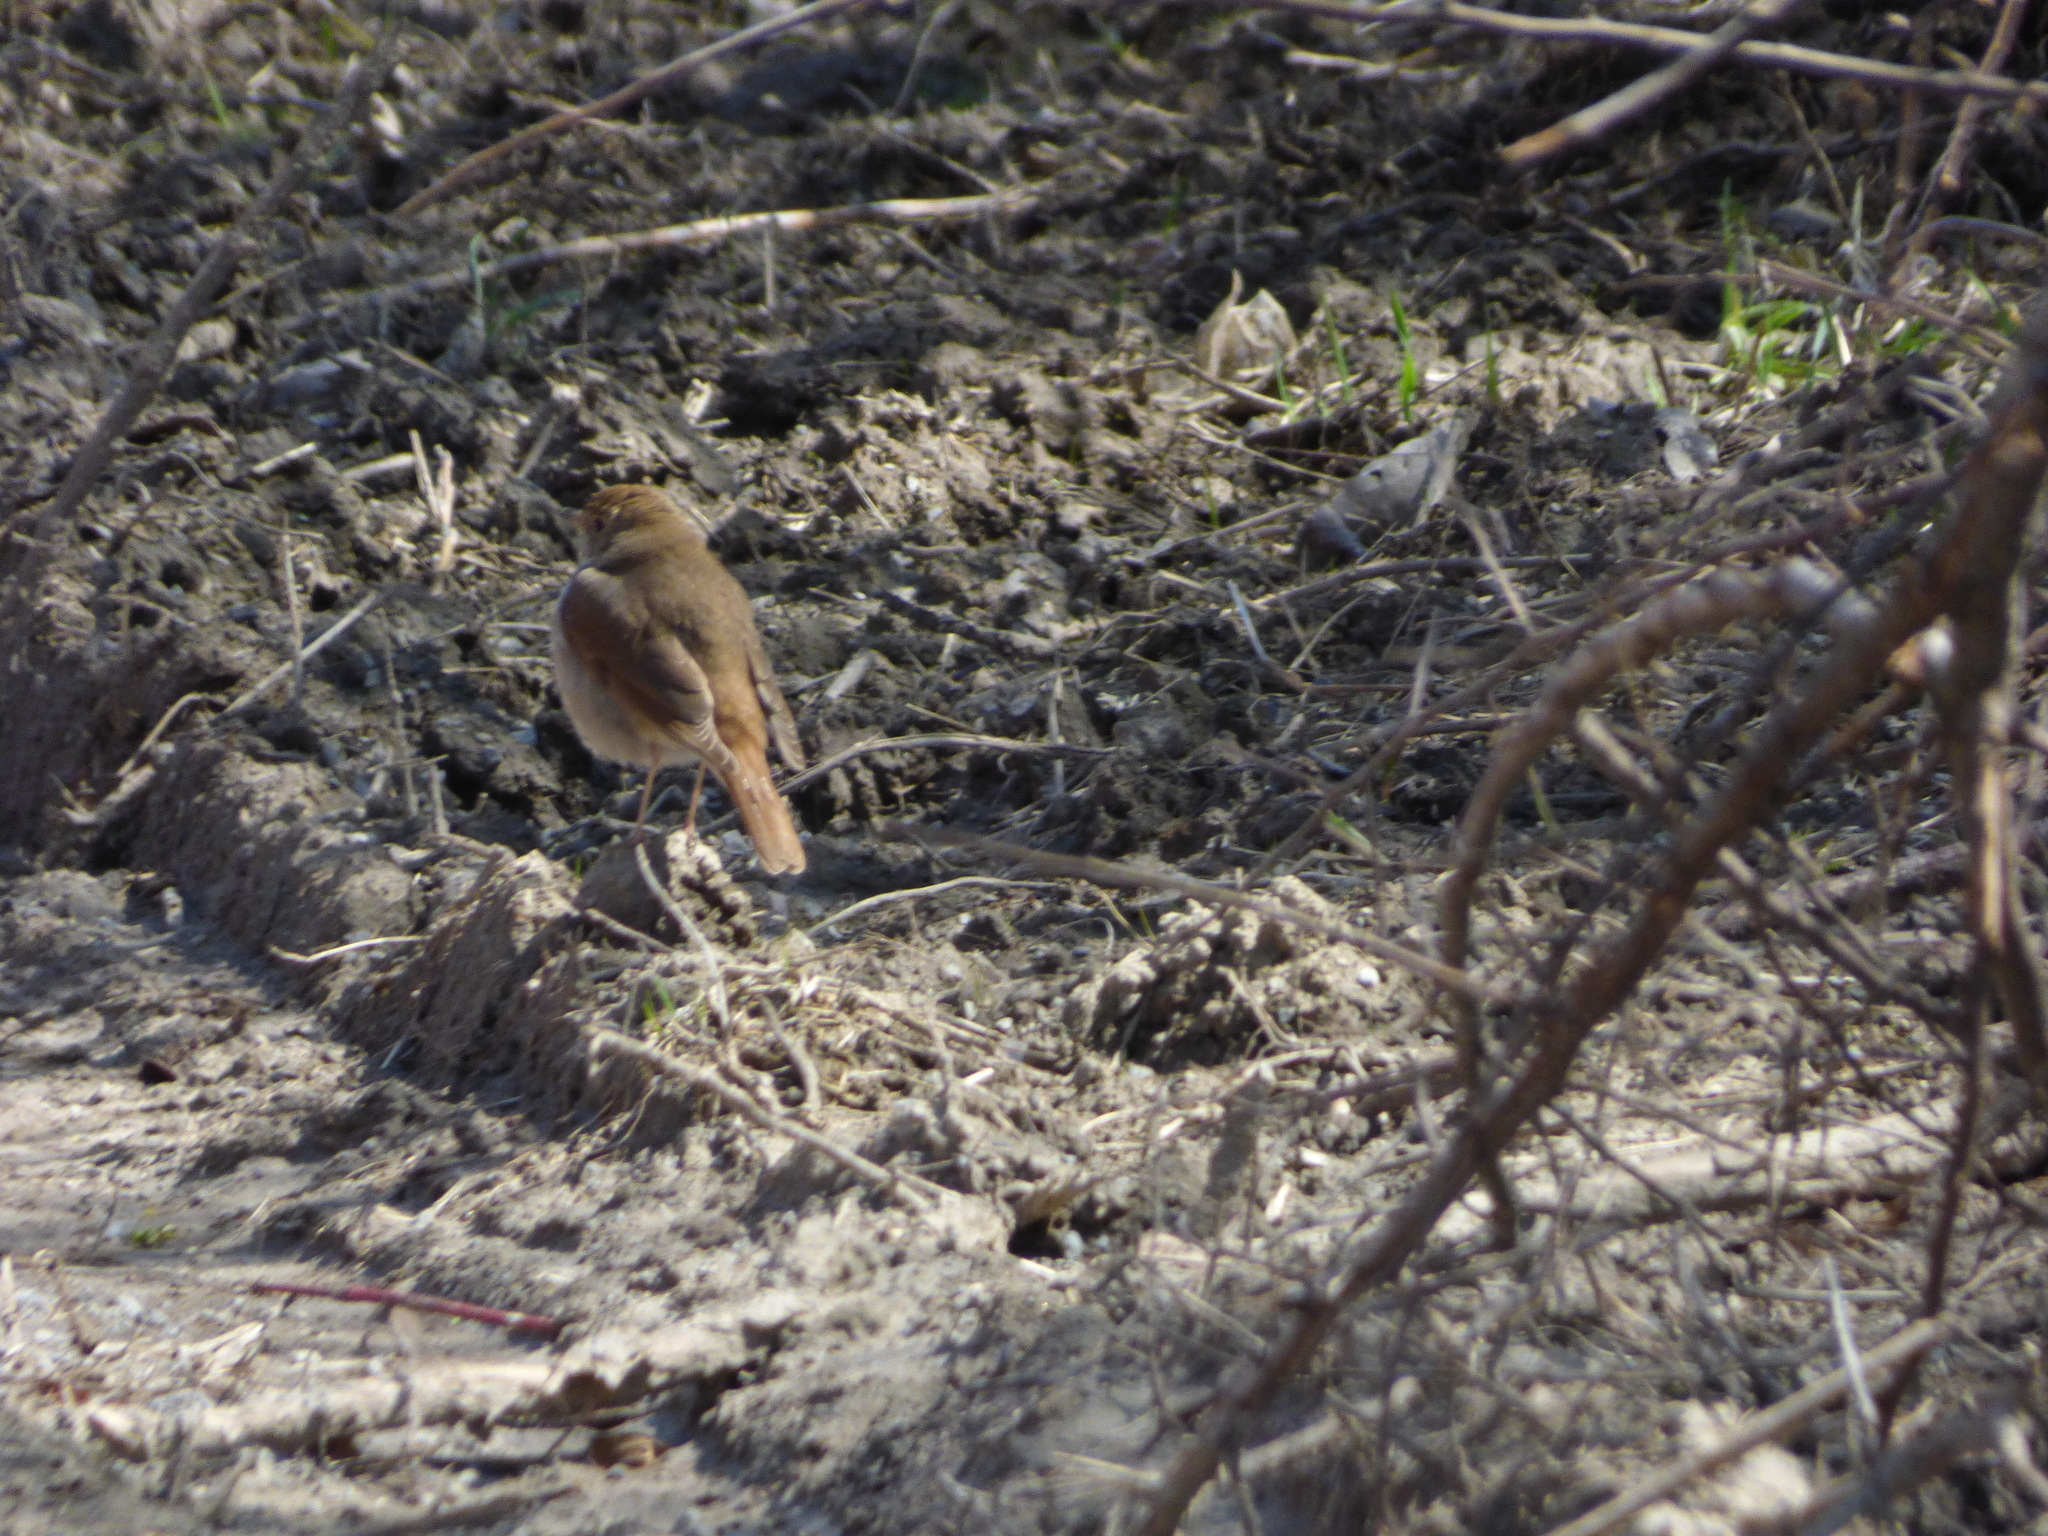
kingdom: Animalia
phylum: Chordata
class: Aves
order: Passeriformes
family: Turdidae
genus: Catharus
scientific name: Catharus guttatus
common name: Hermit thrush
